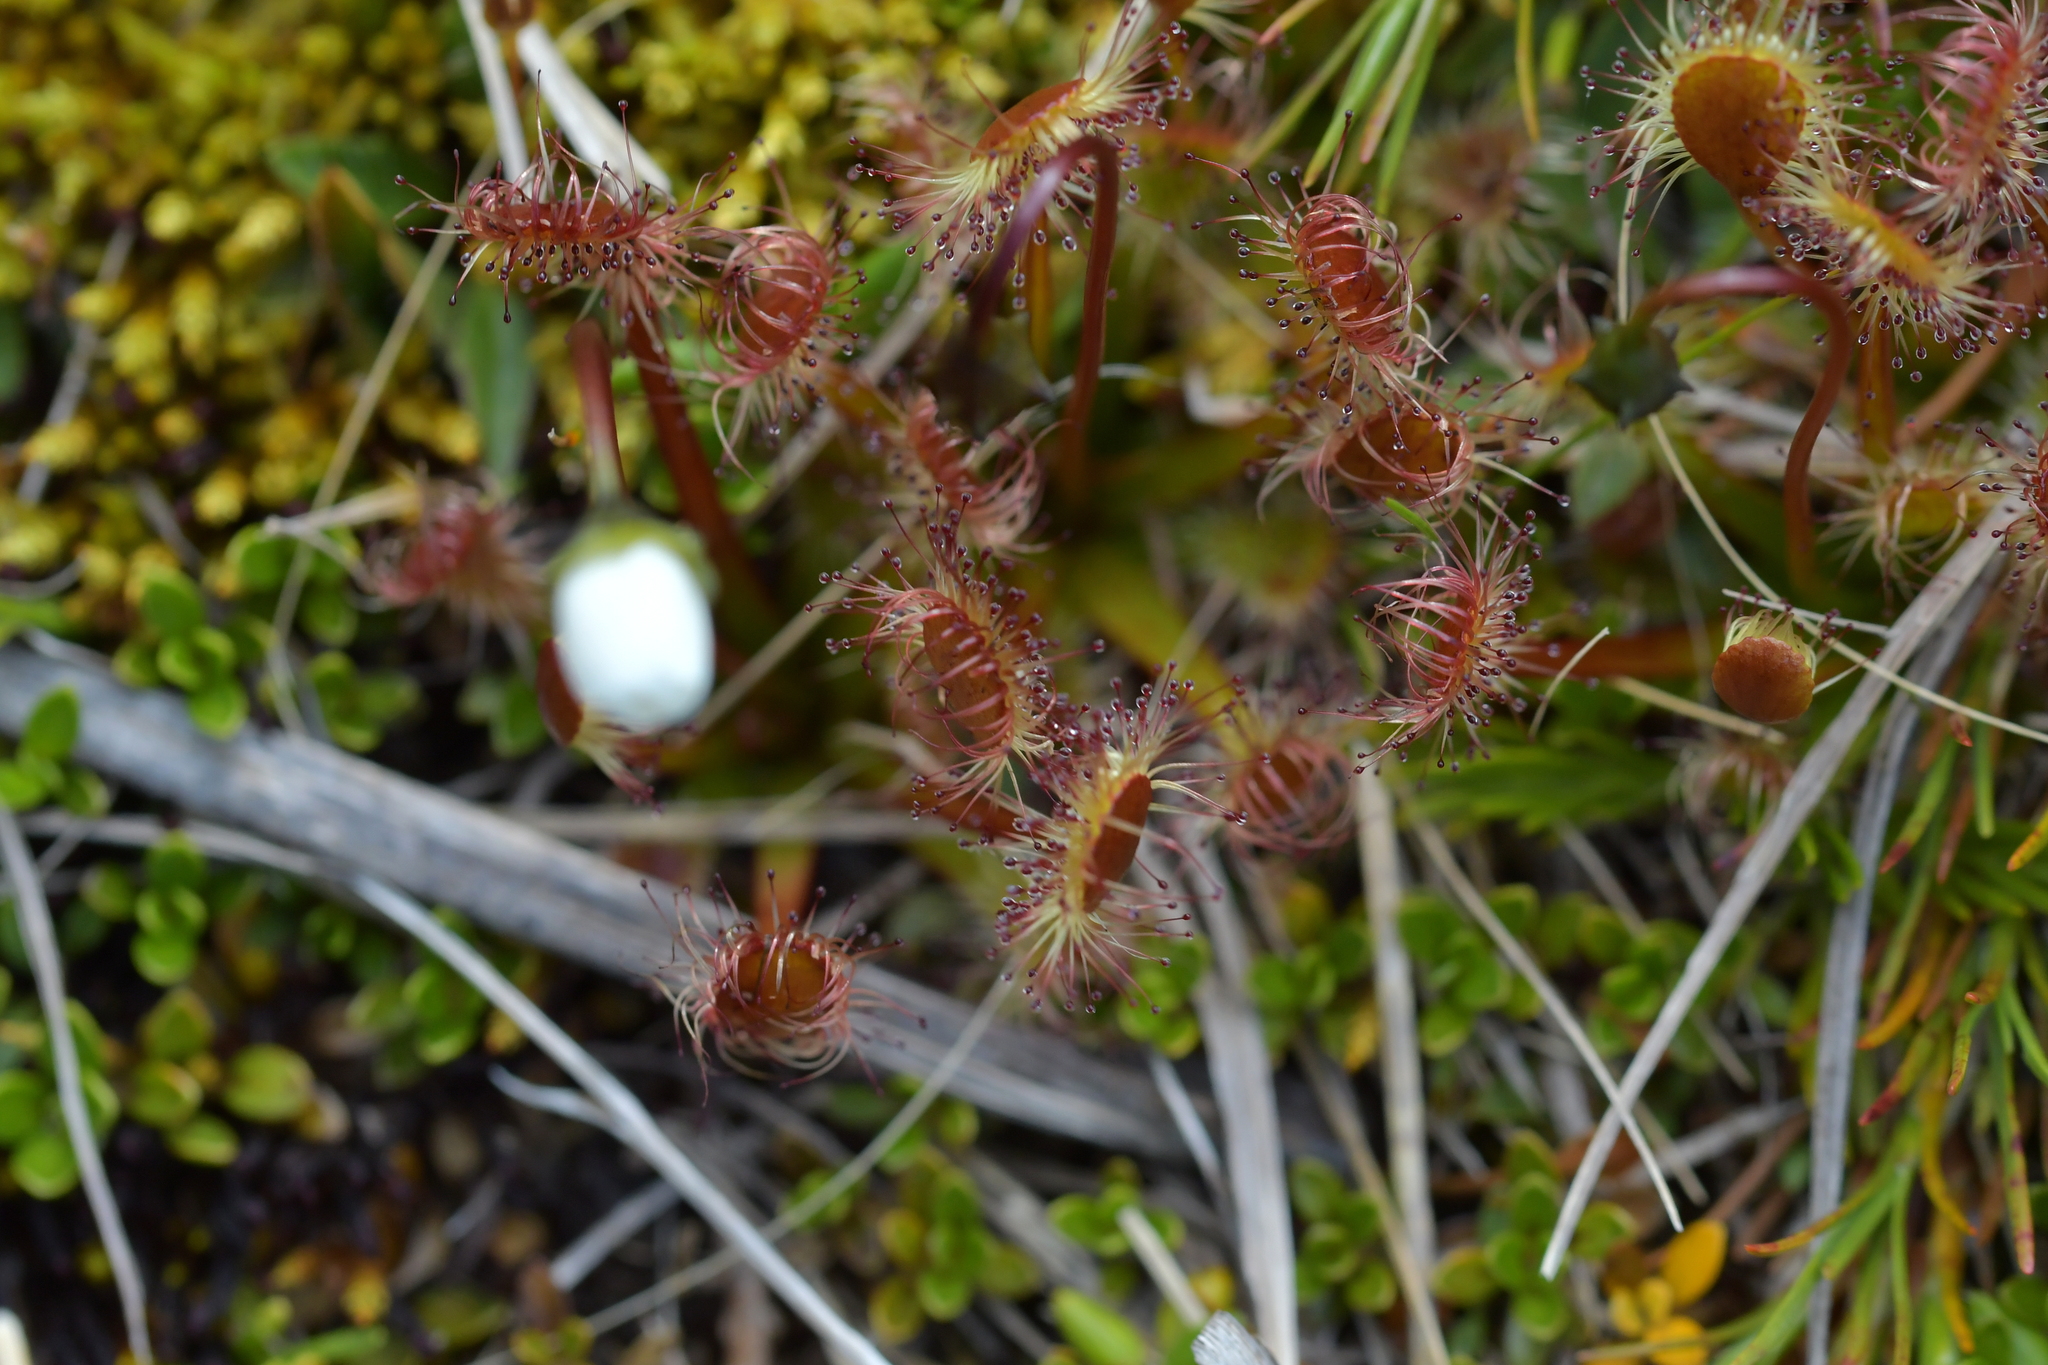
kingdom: Plantae
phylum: Tracheophyta
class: Magnoliopsida
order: Caryophyllales
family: Droseraceae
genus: Drosera
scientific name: Drosera stenopetala
